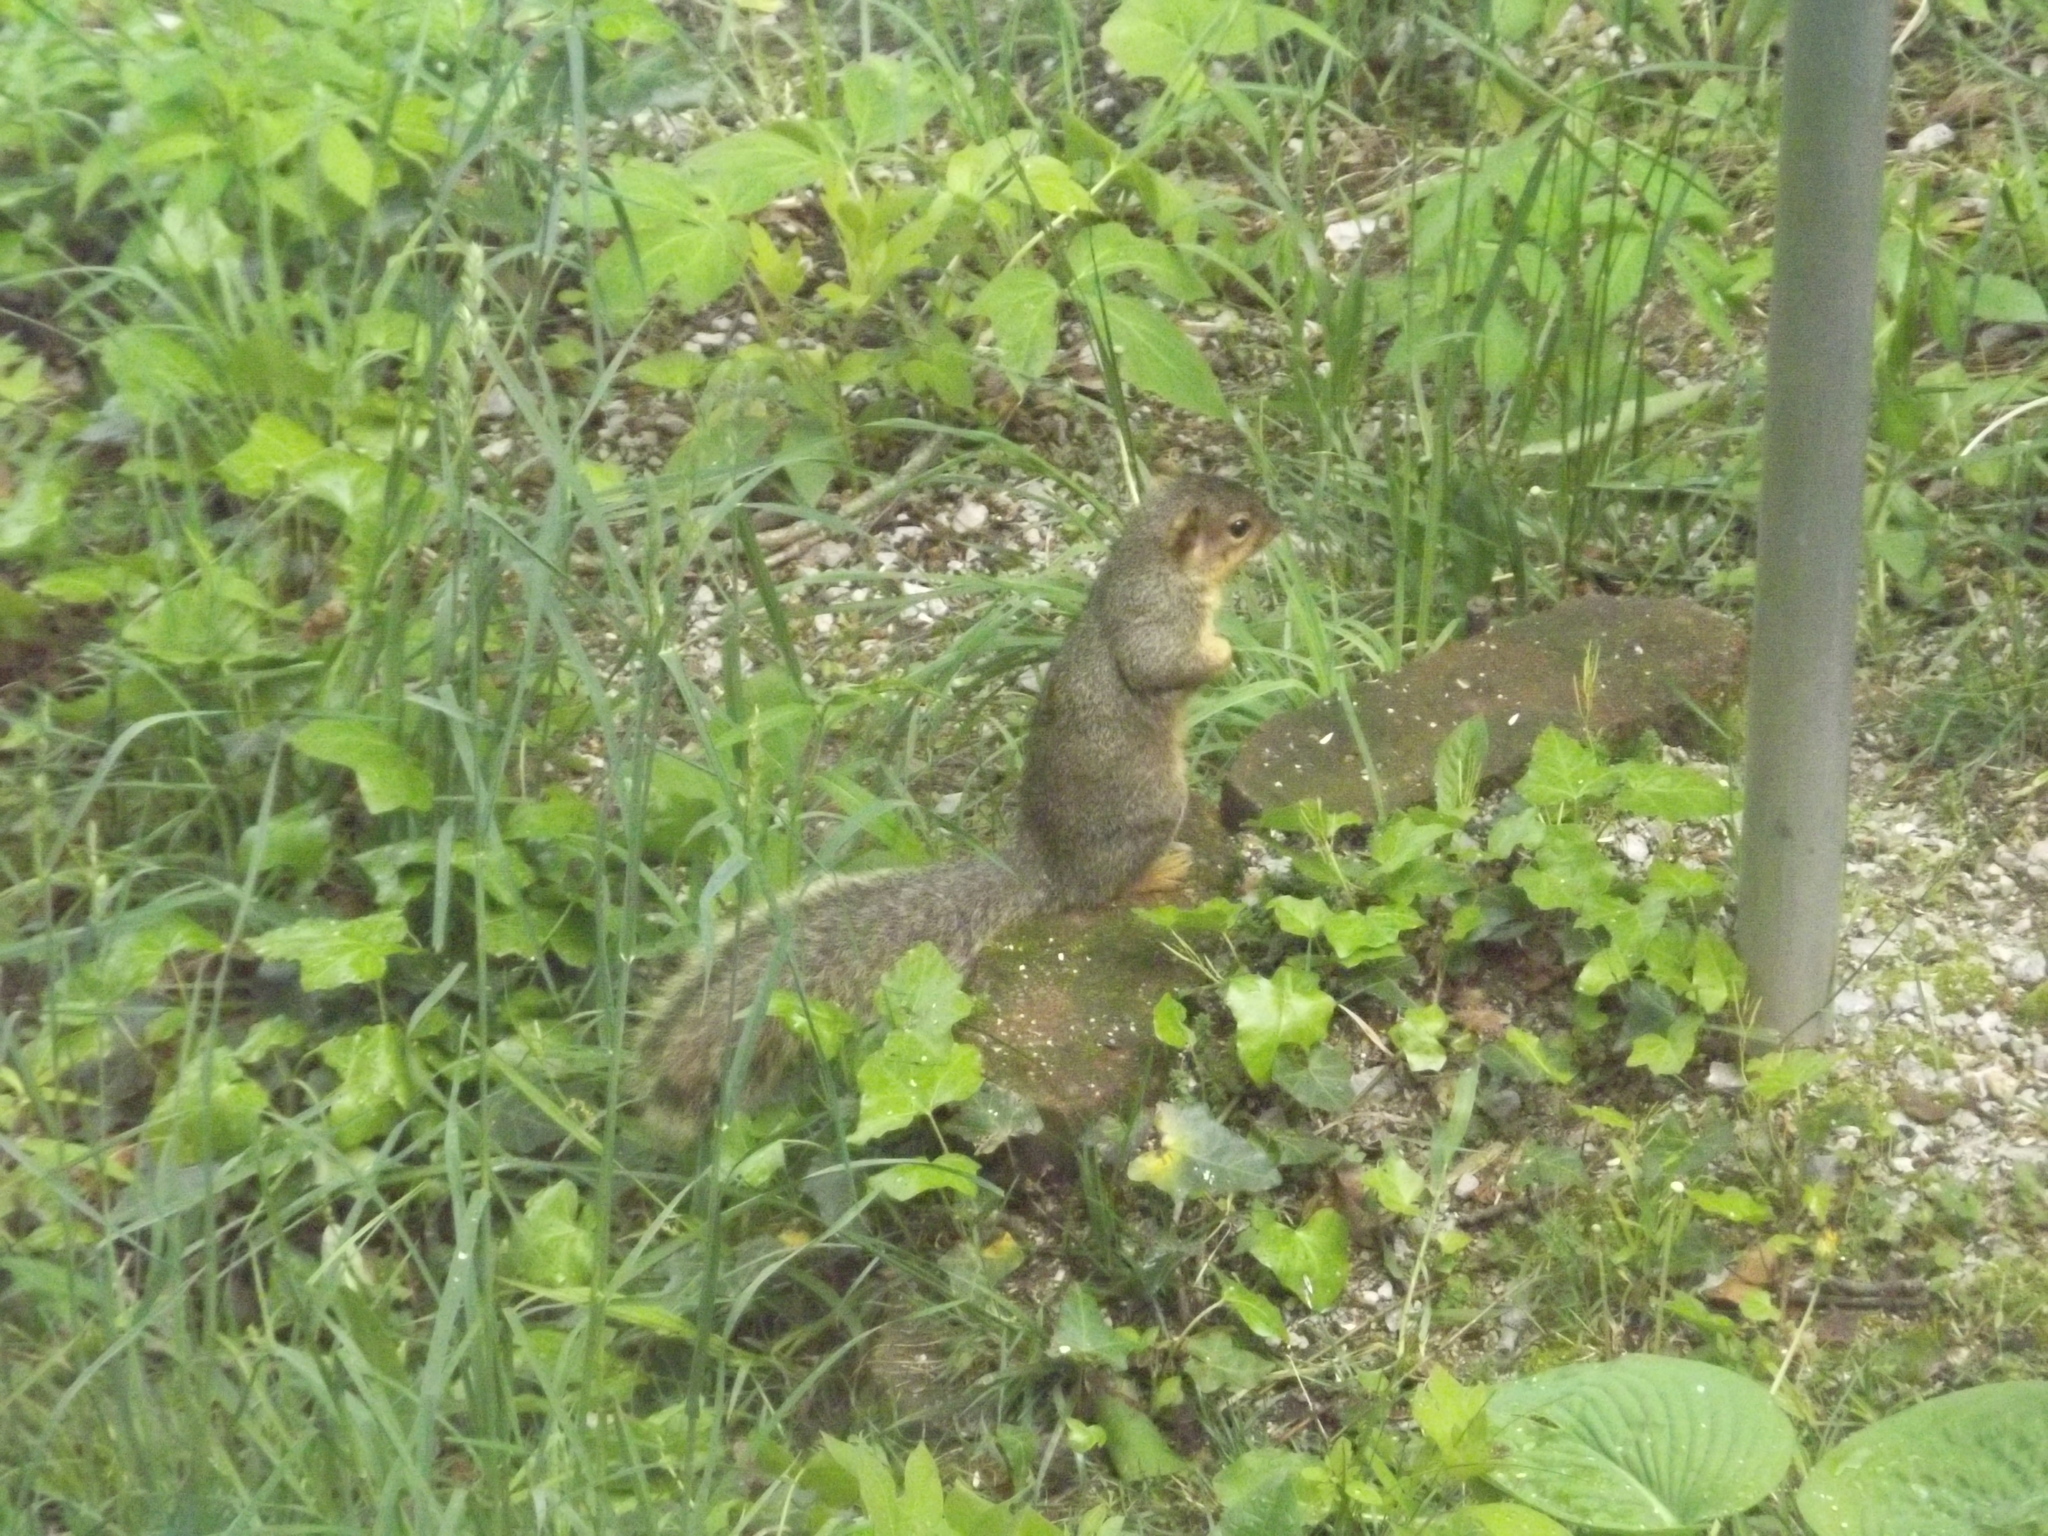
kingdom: Animalia
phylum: Chordata
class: Mammalia
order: Rodentia
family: Sciuridae
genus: Sciurus
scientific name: Sciurus niger
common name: Fox squirrel
